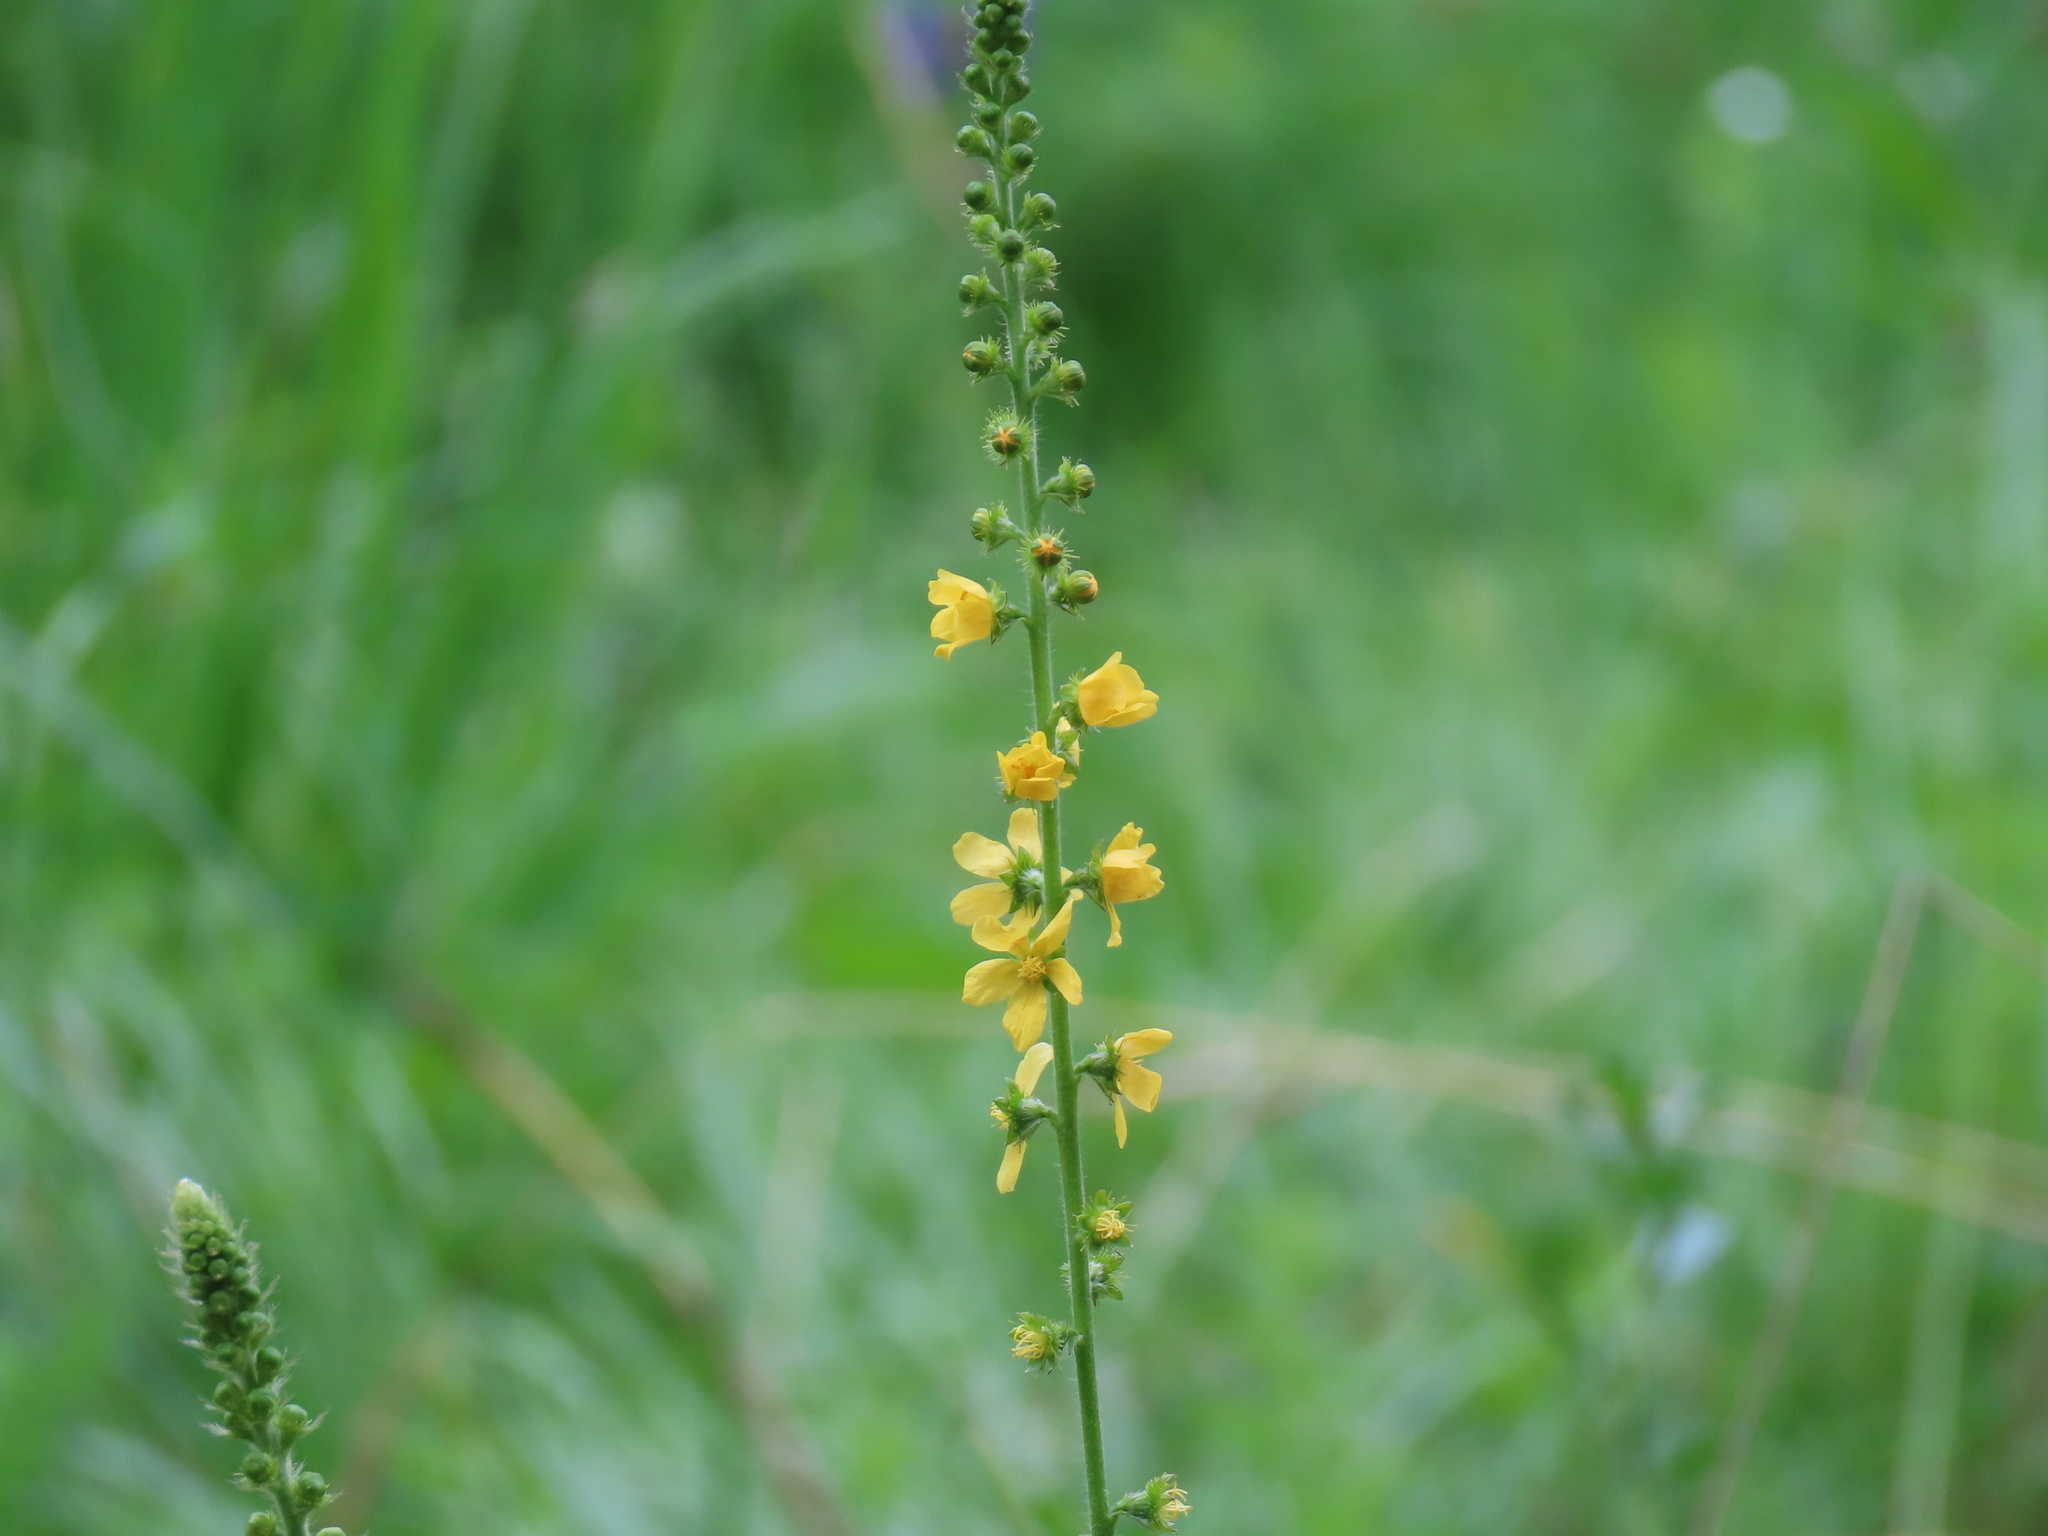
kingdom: Plantae
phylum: Tracheophyta
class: Magnoliopsida
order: Rosales
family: Rosaceae
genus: Agrimonia
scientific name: Agrimonia eupatoria
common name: Agrimony
